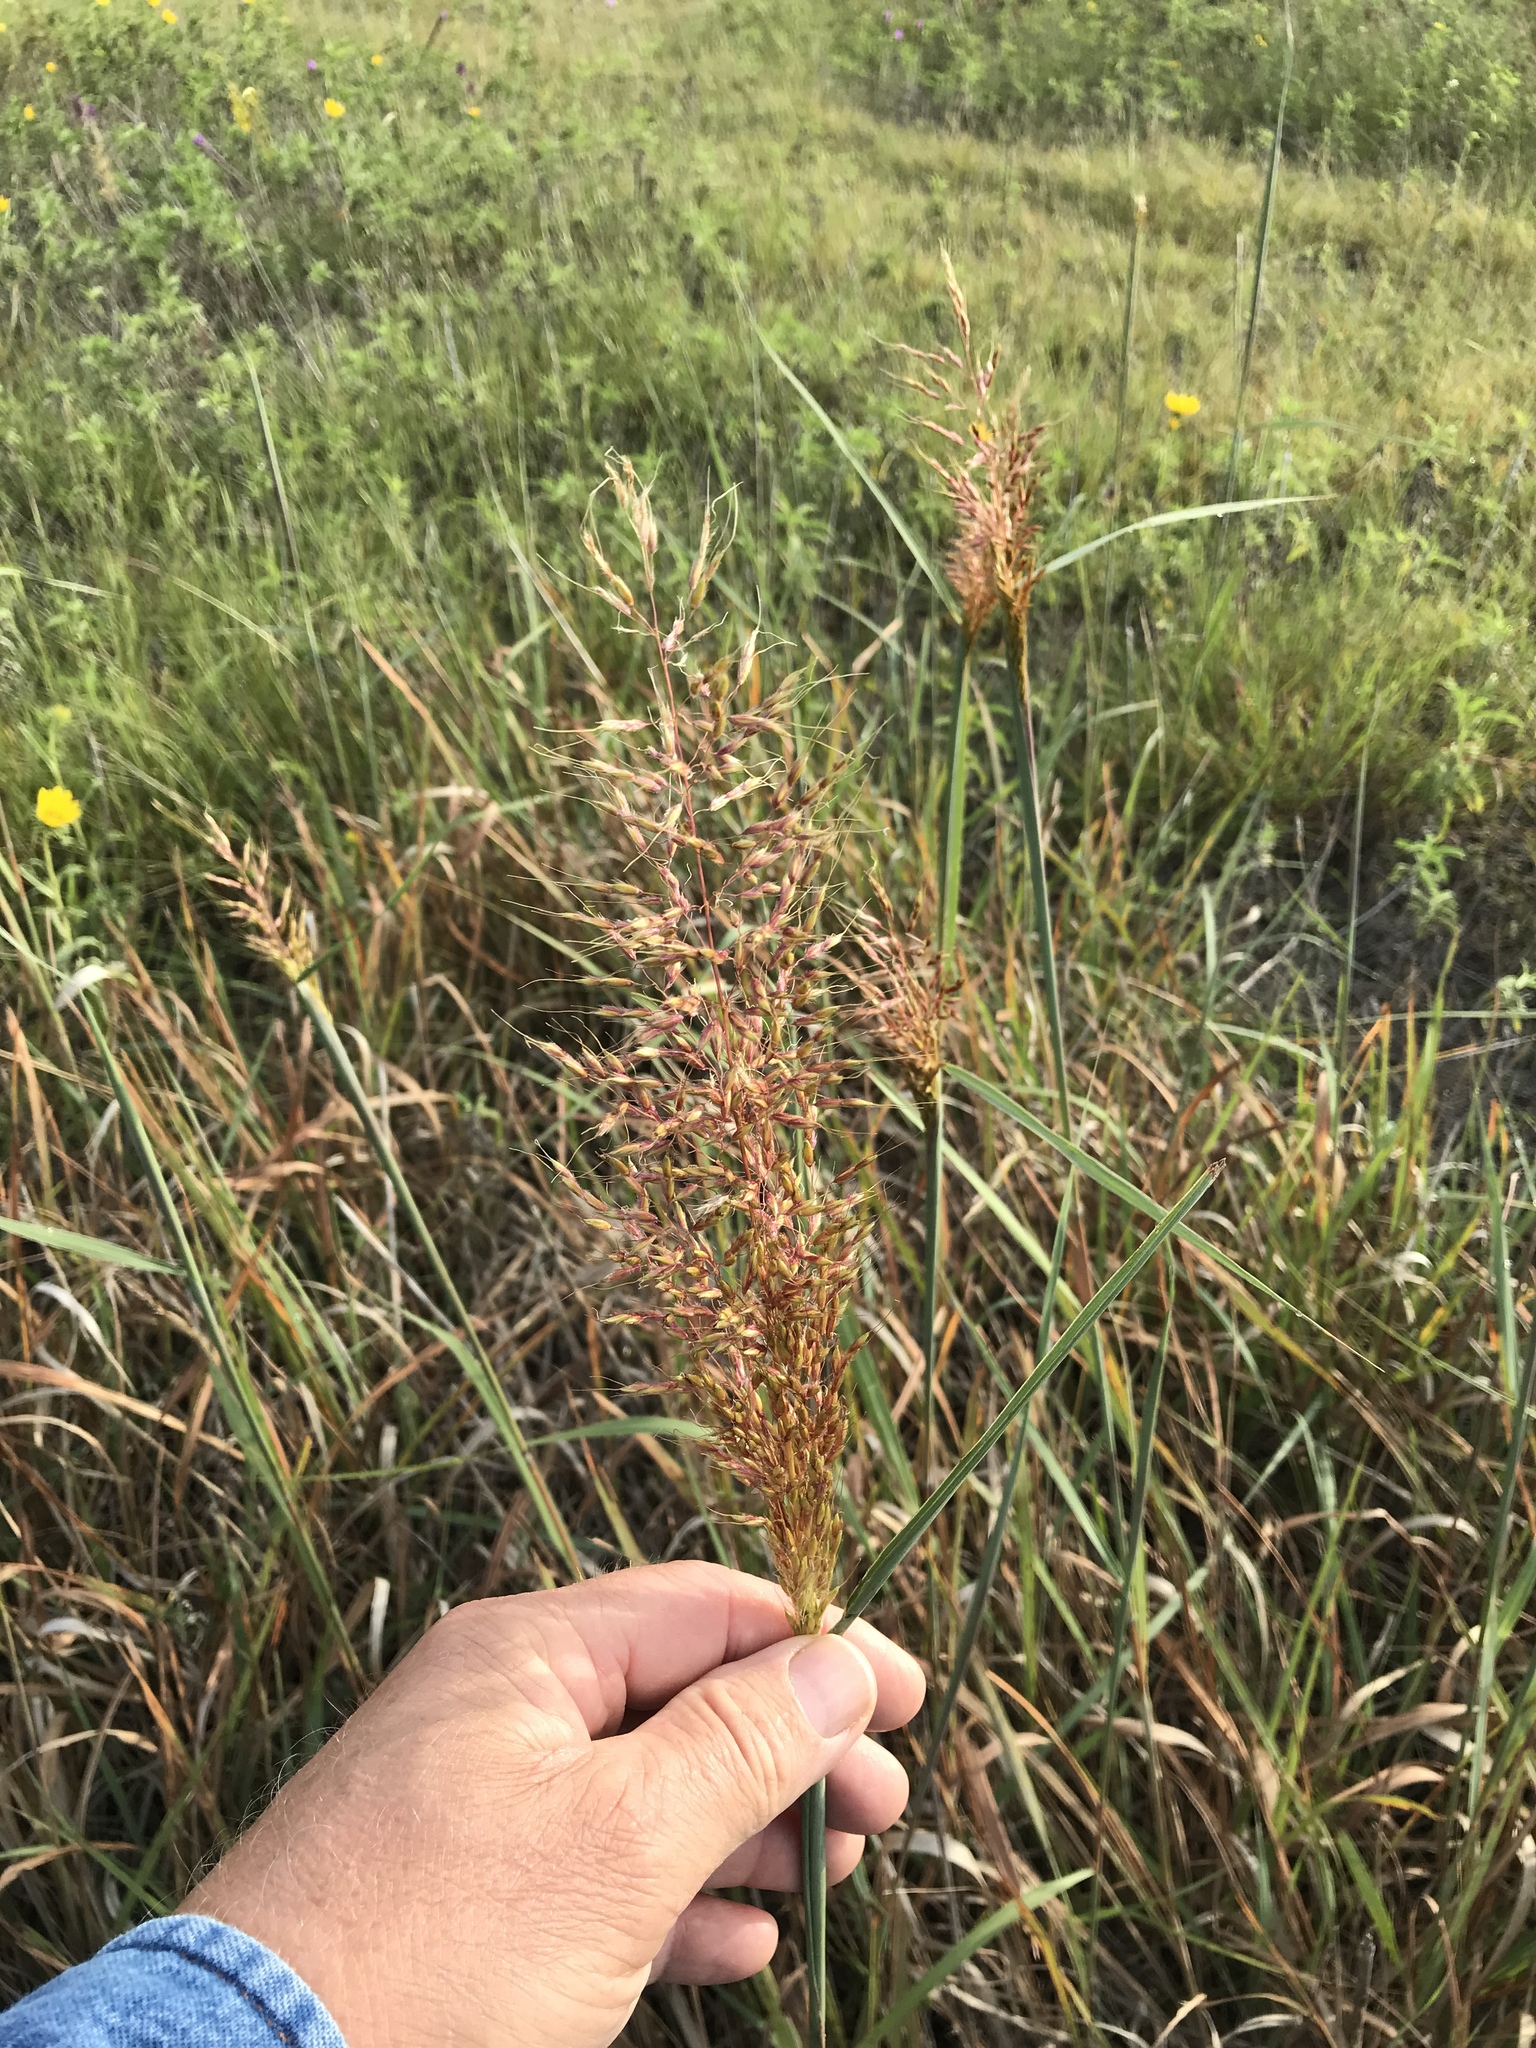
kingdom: Plantae
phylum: Tracheophyta
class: Liliopsida
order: Poales
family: Poaceae
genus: Sorghastrum
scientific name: Sorghastrum nutans
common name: Indian grass
